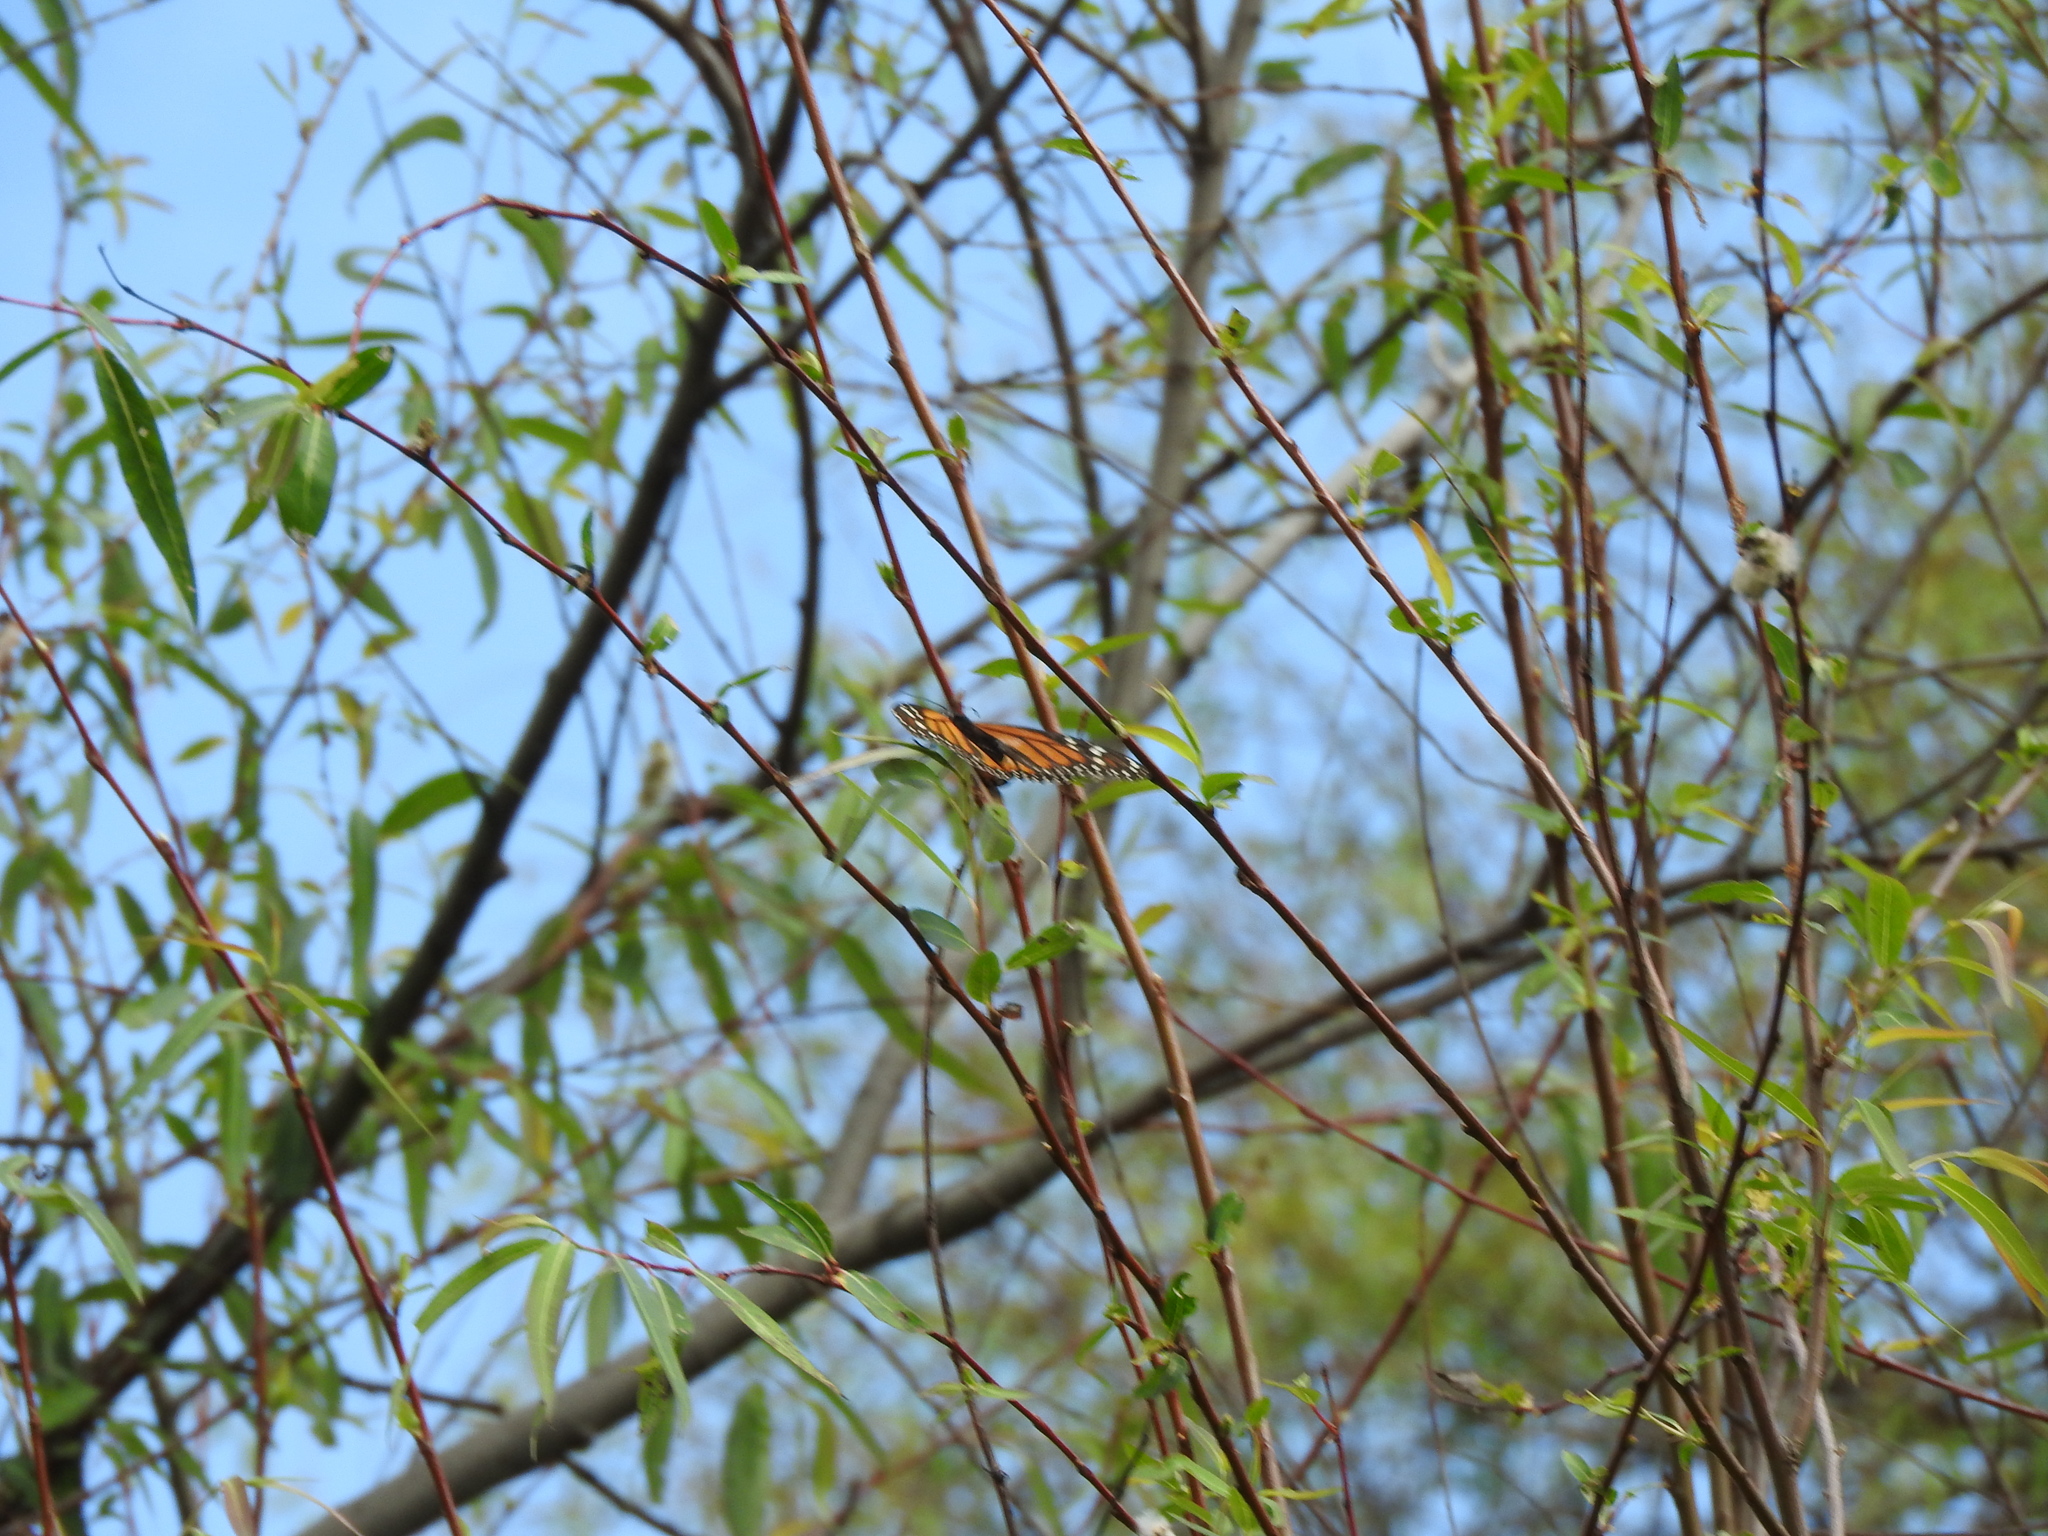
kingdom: Animalia
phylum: Arthropoda
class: Insecta
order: Lepidoptera
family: Nymphalidae
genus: Danaus
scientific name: Danaus plexippus
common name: Monarch
